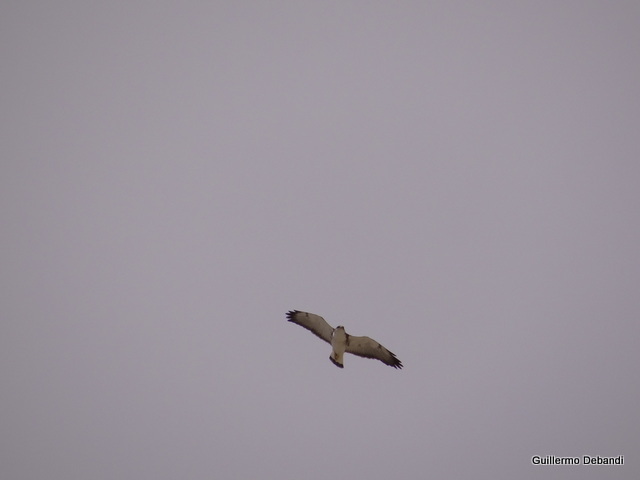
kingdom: Animalia
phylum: Chordata
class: Aves
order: Accipitriformes
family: Accipitridae
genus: Buteo
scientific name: Buteo polyosoma
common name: Variable hawk
